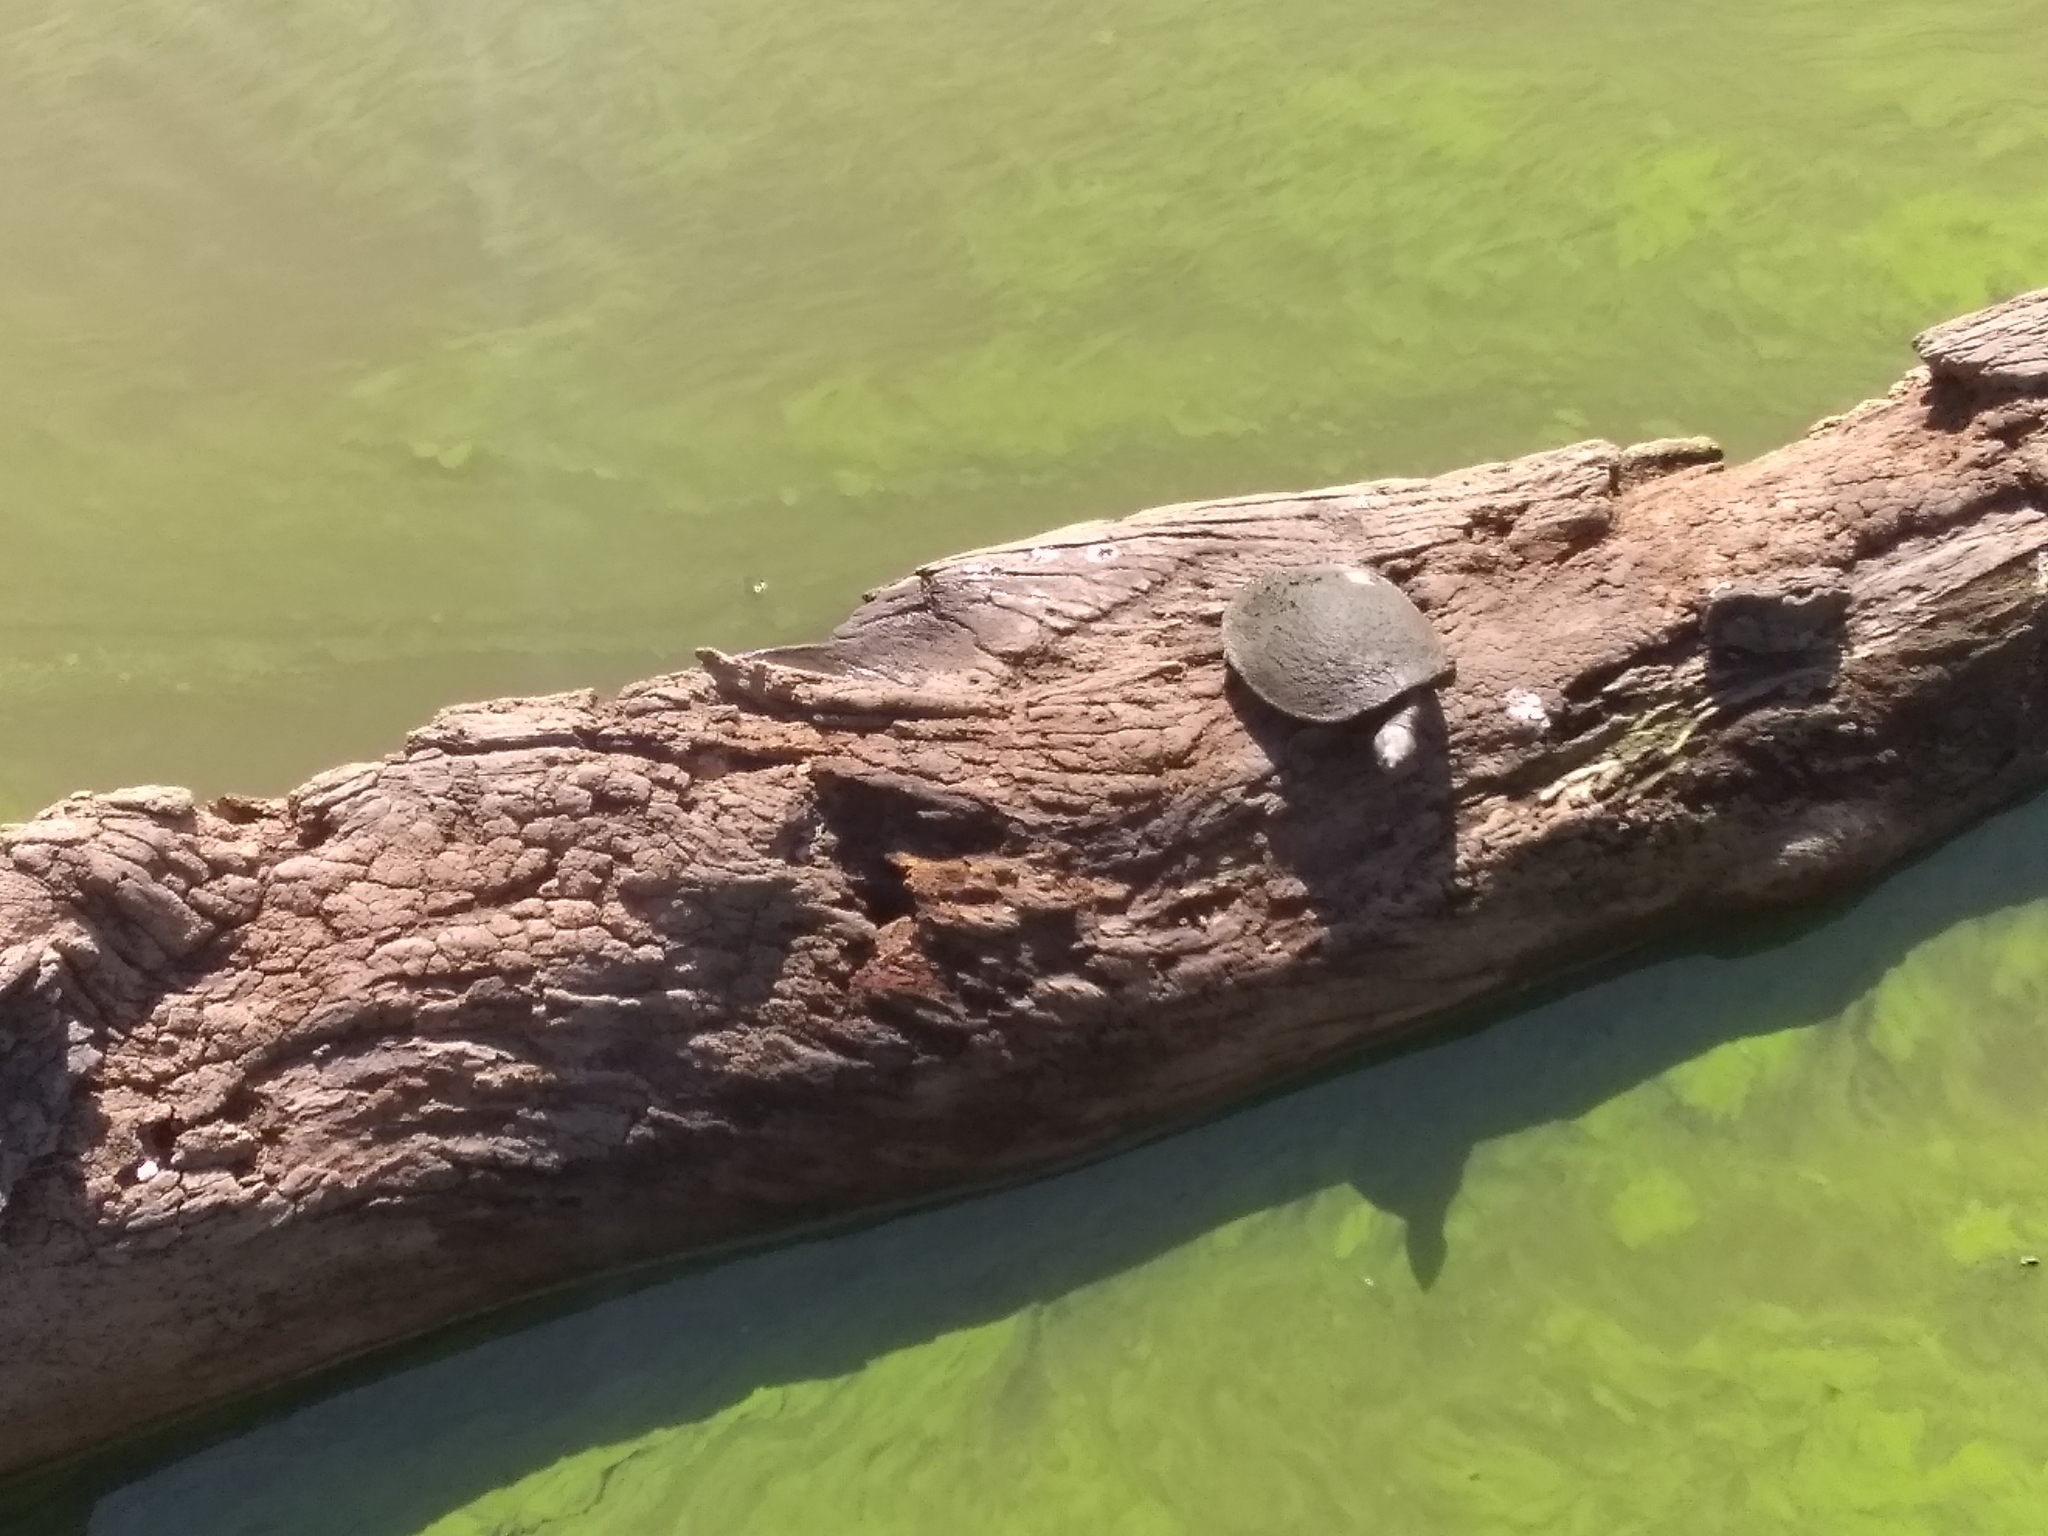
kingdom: Animalia
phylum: Chordata
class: Testudines
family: Chelidae
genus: Emydura
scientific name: Emydura macquarii
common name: Murray river turtle
